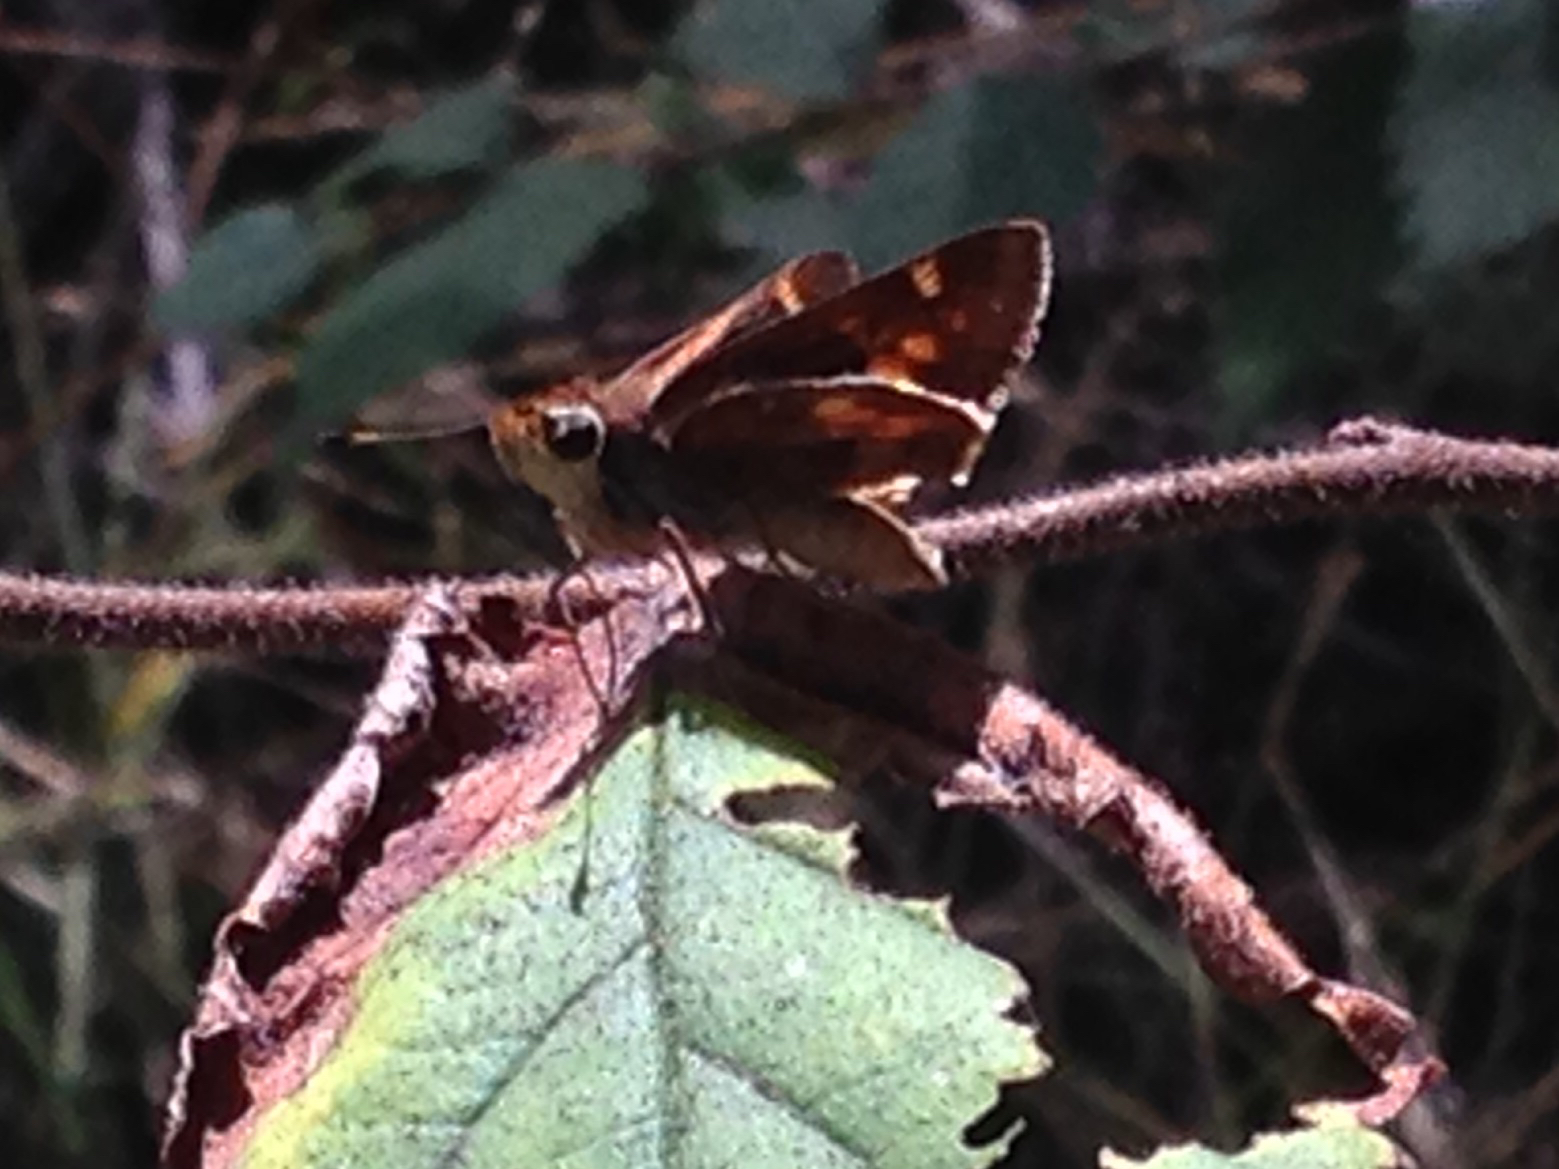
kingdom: Animalia
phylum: Arthropoda
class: Insecta
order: Lepidoptera
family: Hesperiidae
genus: Lon
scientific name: Lon melane
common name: Umber skipper
